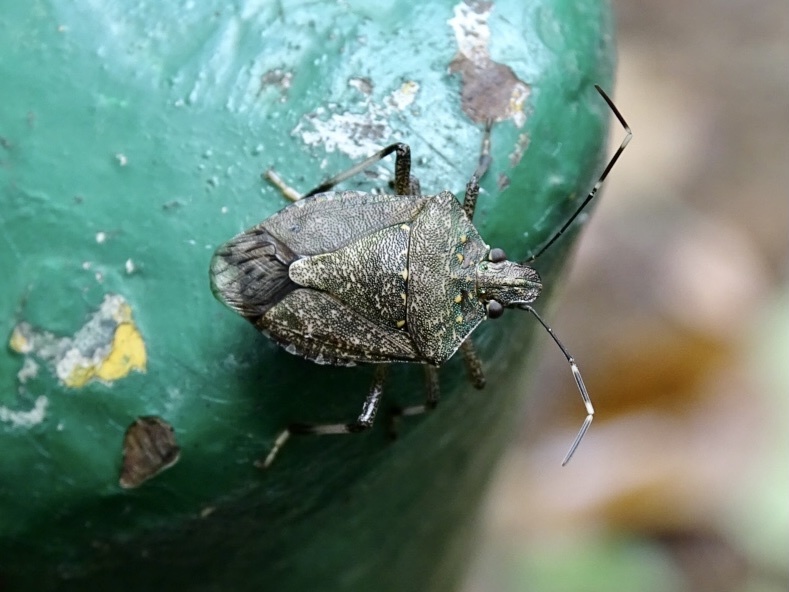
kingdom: Animalia
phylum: Arthropoda
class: Insecta
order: Hemiptera
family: Pentatomidae
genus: Halyomorpha
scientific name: Halyomorpha halys
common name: Brown marmorated stink bug
